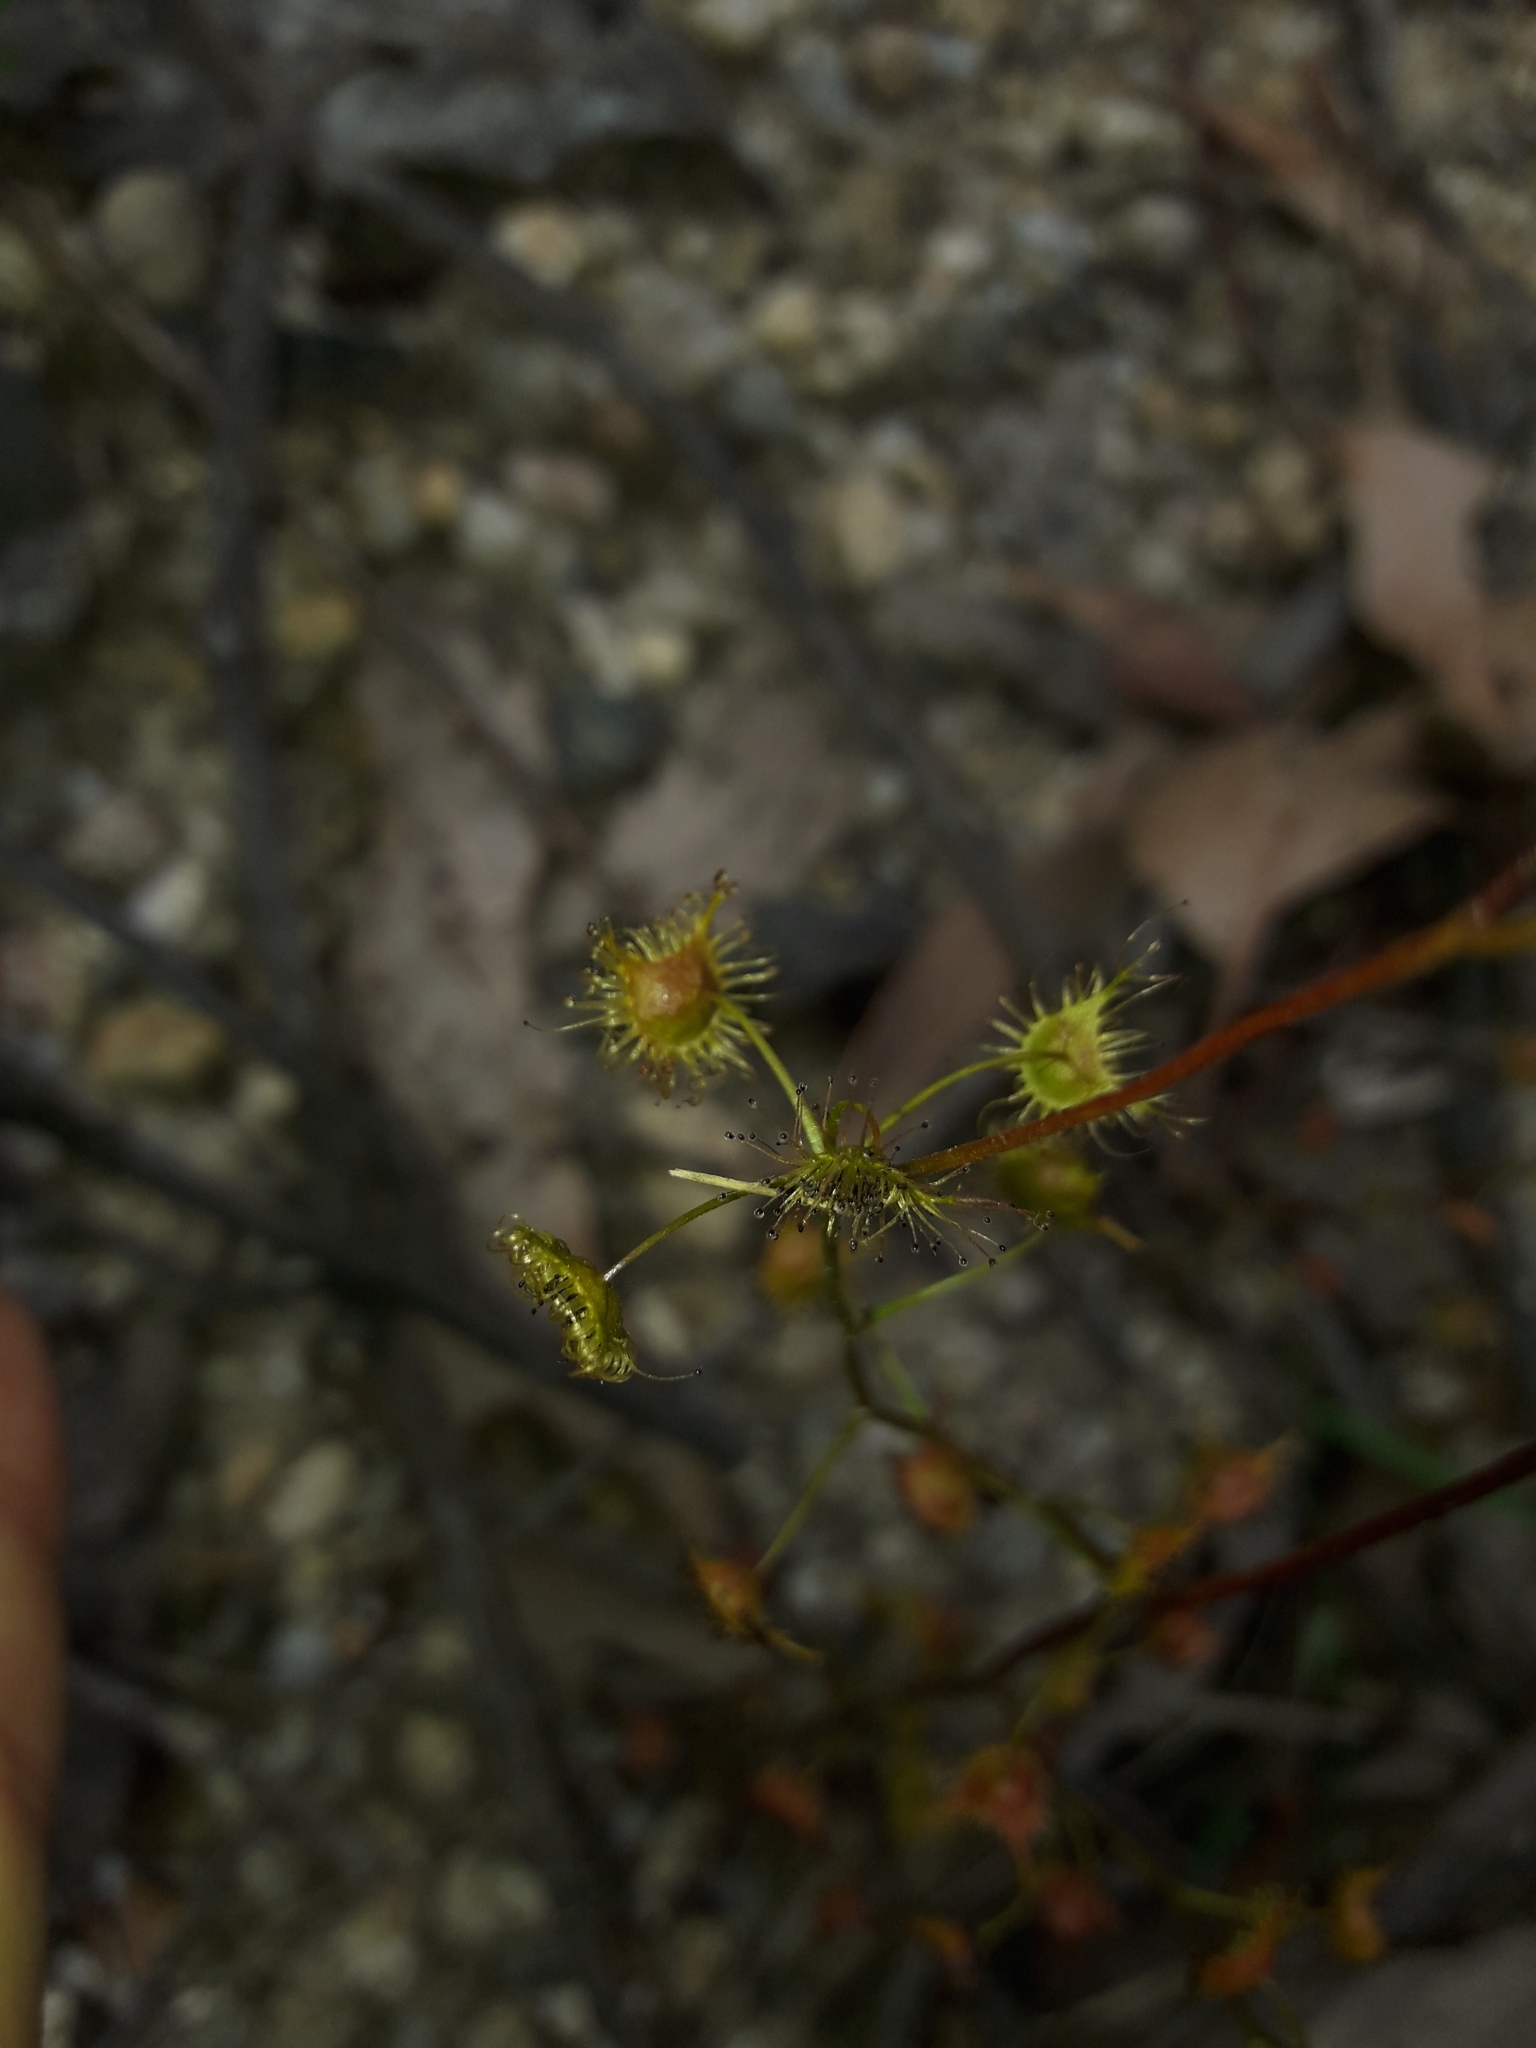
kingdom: Plantae
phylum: Tracheophyta
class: Magnoliopsida
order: Caryophyllales
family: Droseraceae
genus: Drosera
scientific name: Drosera peltata
